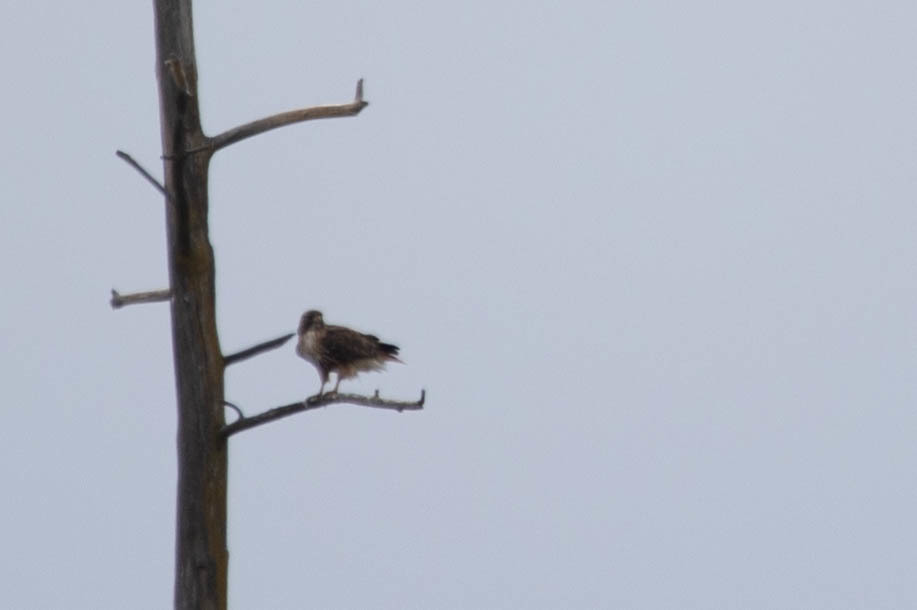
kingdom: Animalia
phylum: Chordata
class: Aves
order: Accipitriformes
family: Accipitridae
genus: Buteo
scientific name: Buteo jamaicensis
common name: Red-tailed hawk
